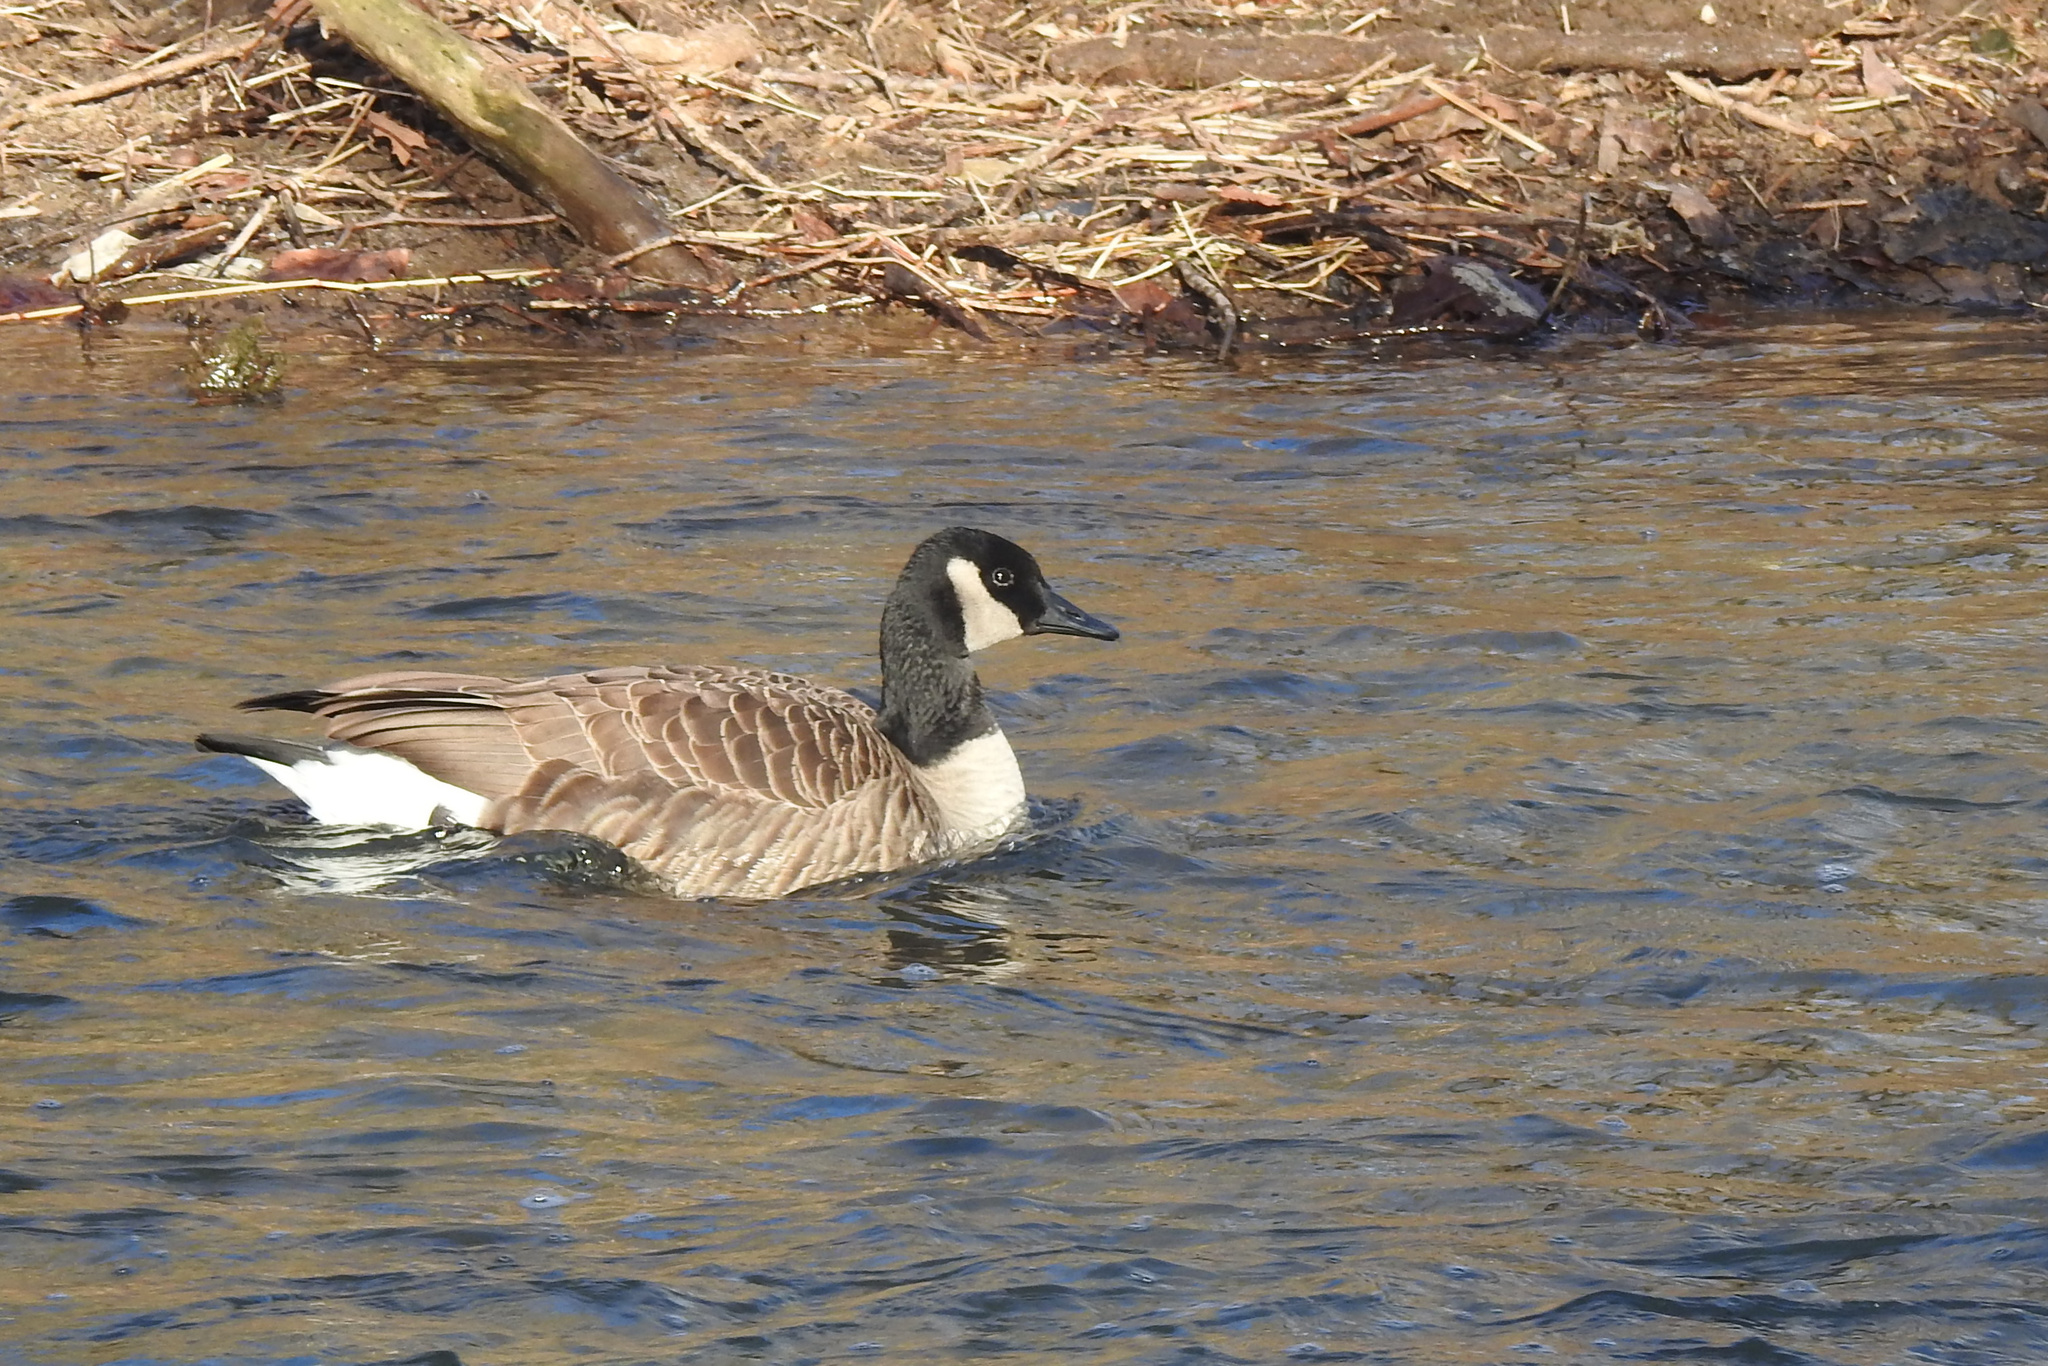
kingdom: Animalia
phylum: Chordata
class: Aves
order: Anseriformes
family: Anatidae
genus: Branta
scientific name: Branta canadensis
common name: Canada goose
